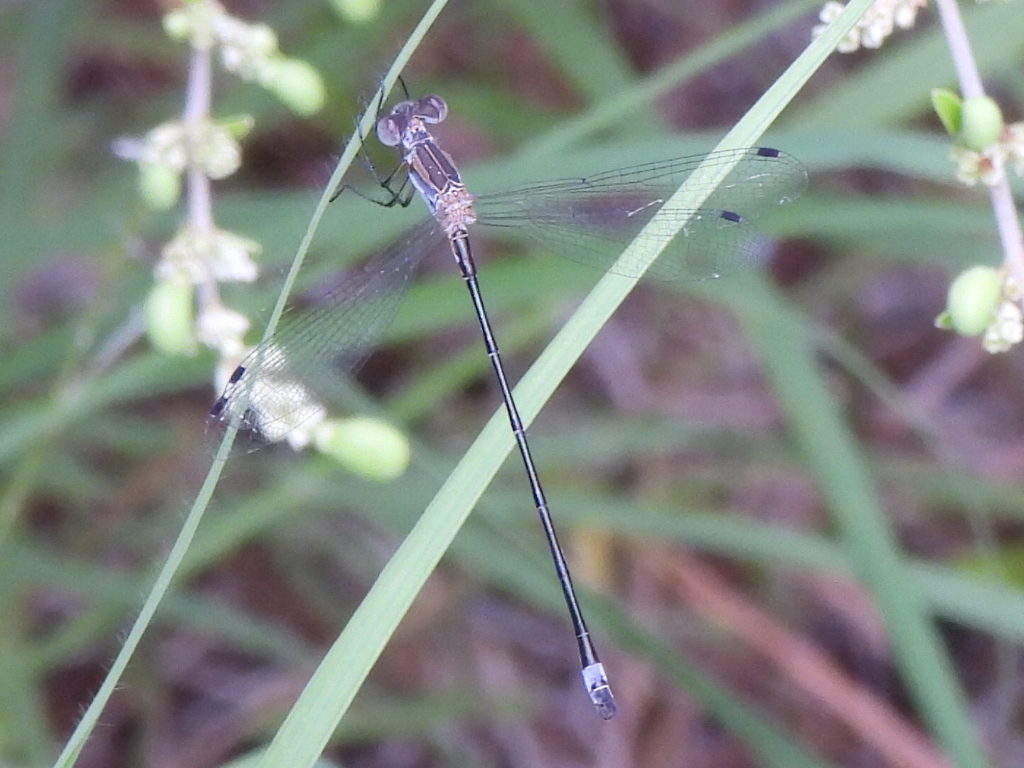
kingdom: Animalia
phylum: Arthropoda
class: Insecta
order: Odonata
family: Lestidae
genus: Lestes
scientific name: Lestes australis
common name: Southern spreadwing
